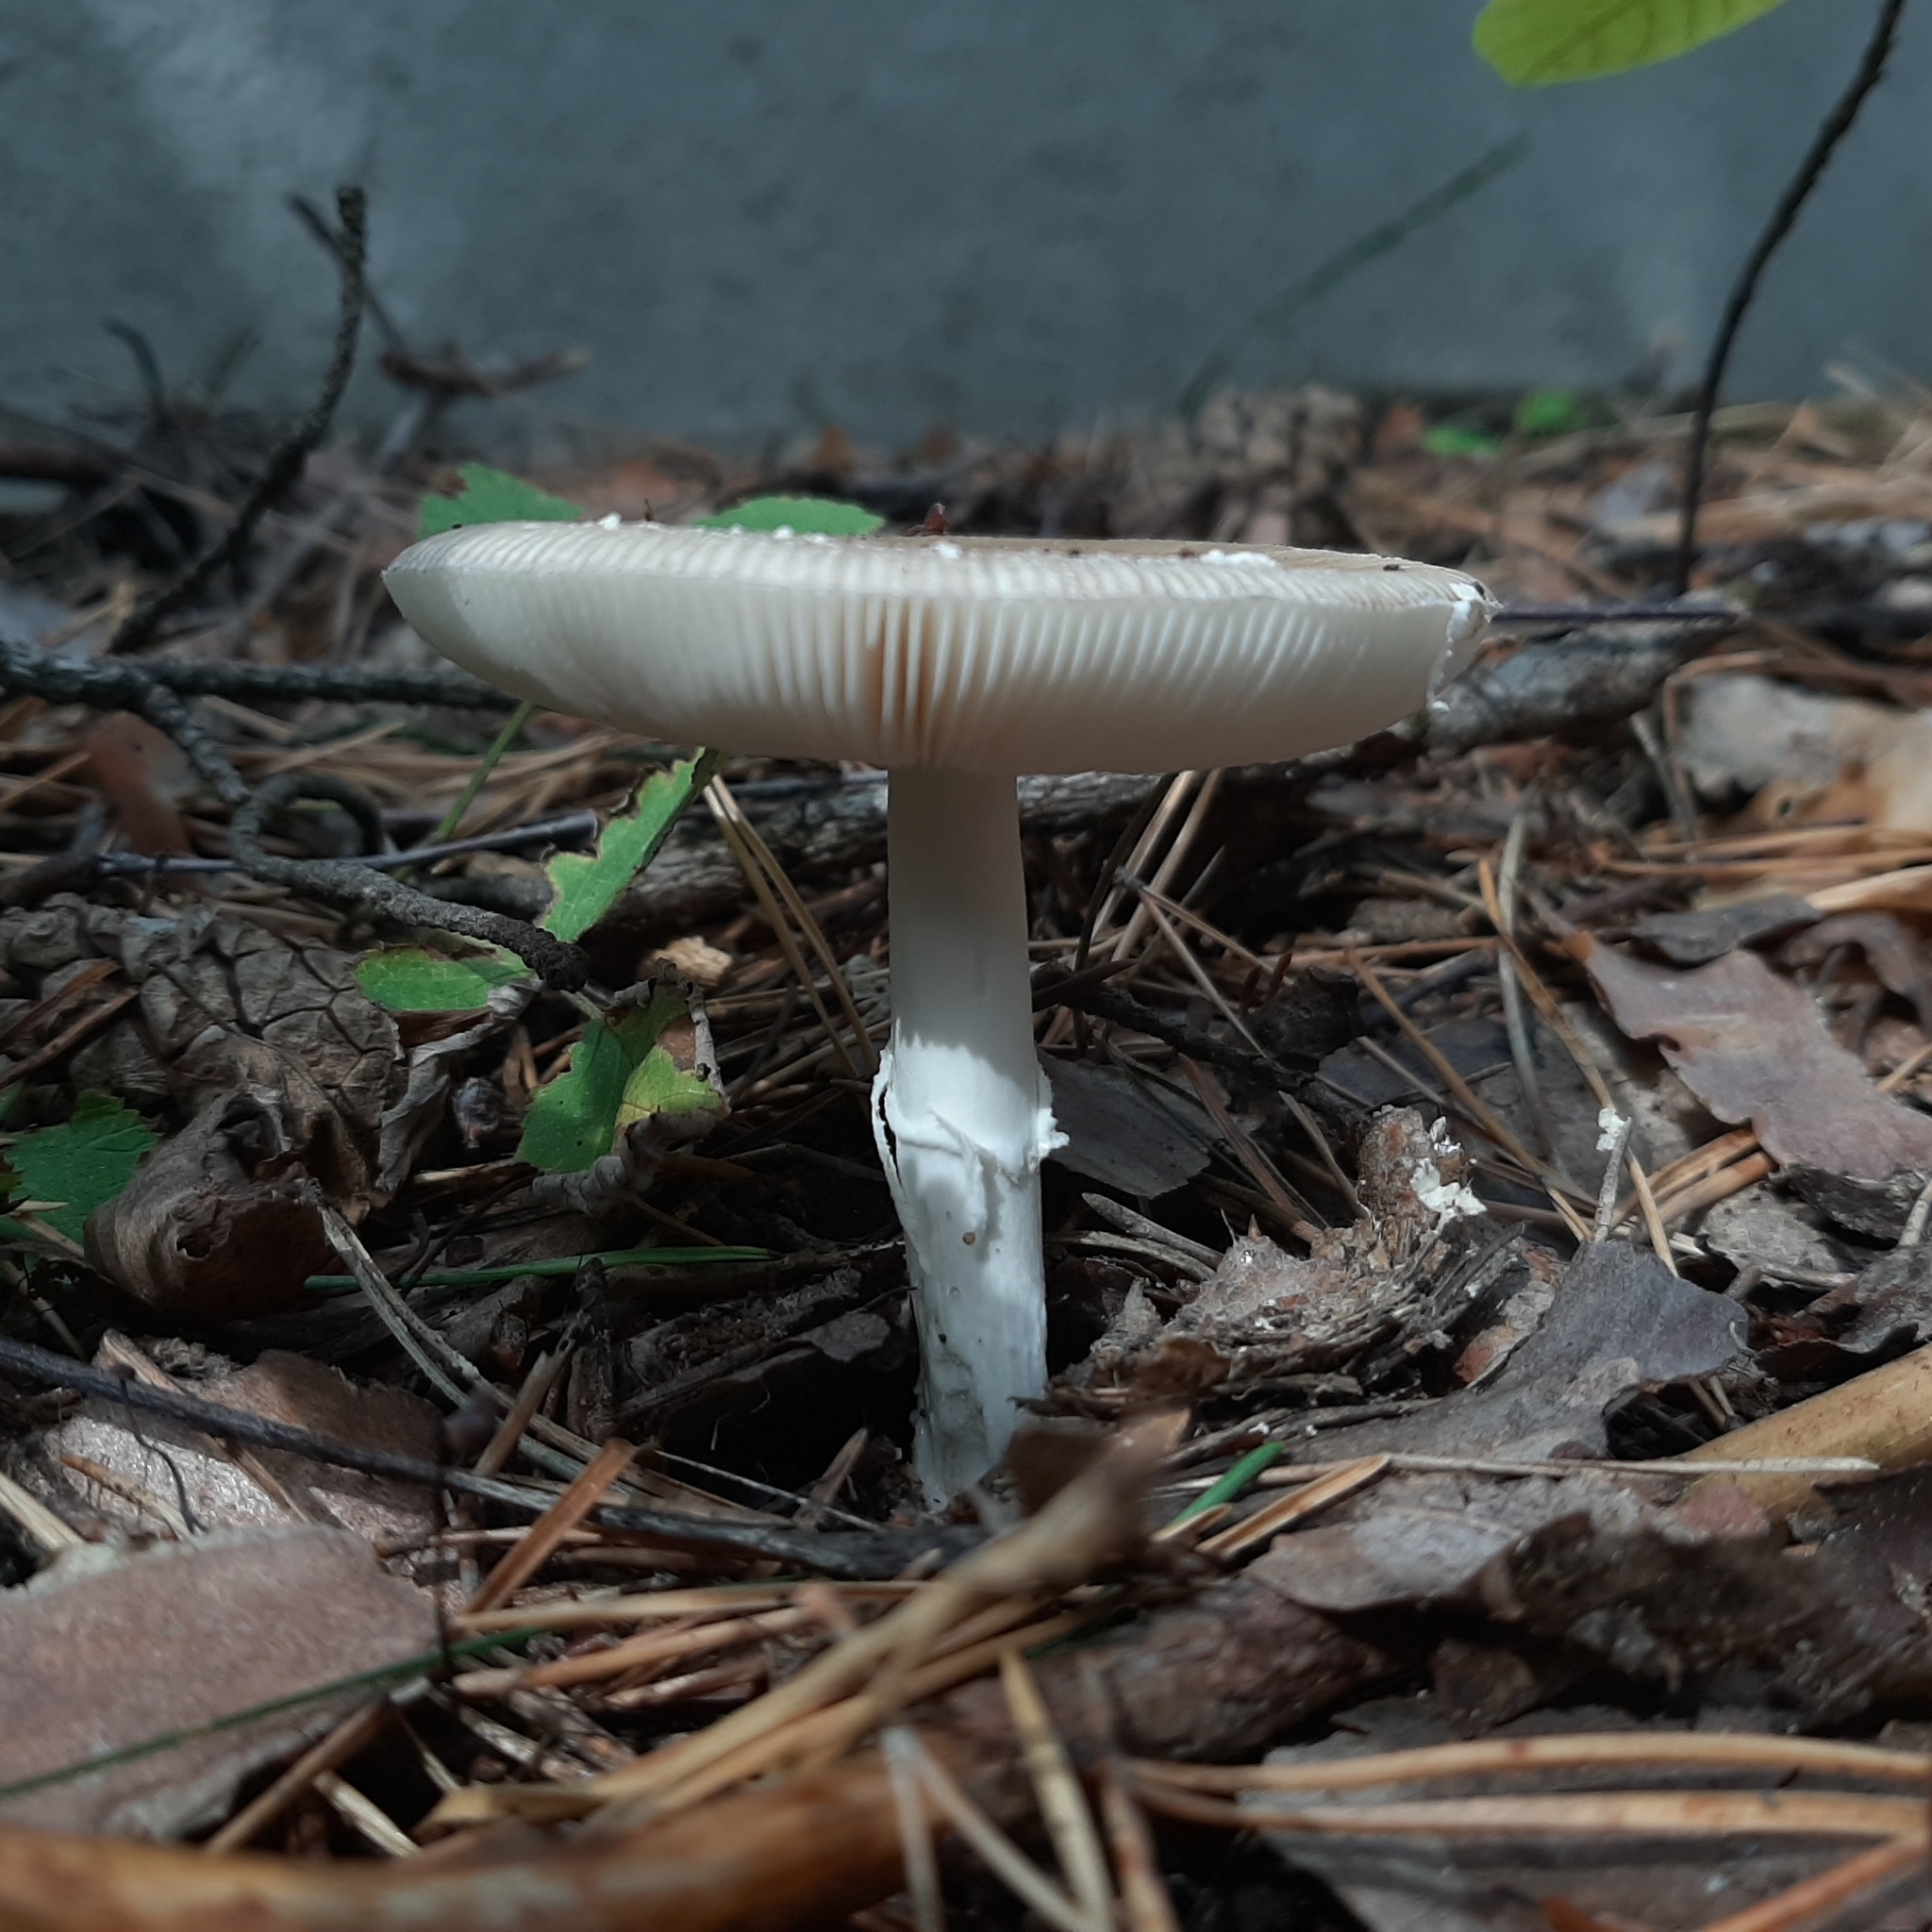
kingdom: Fungi
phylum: Basidiomycota
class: Agaricomycetes
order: Agaricales
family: Amanitaceae
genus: Amanita
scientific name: Amanita pantherina
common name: Panthercap
